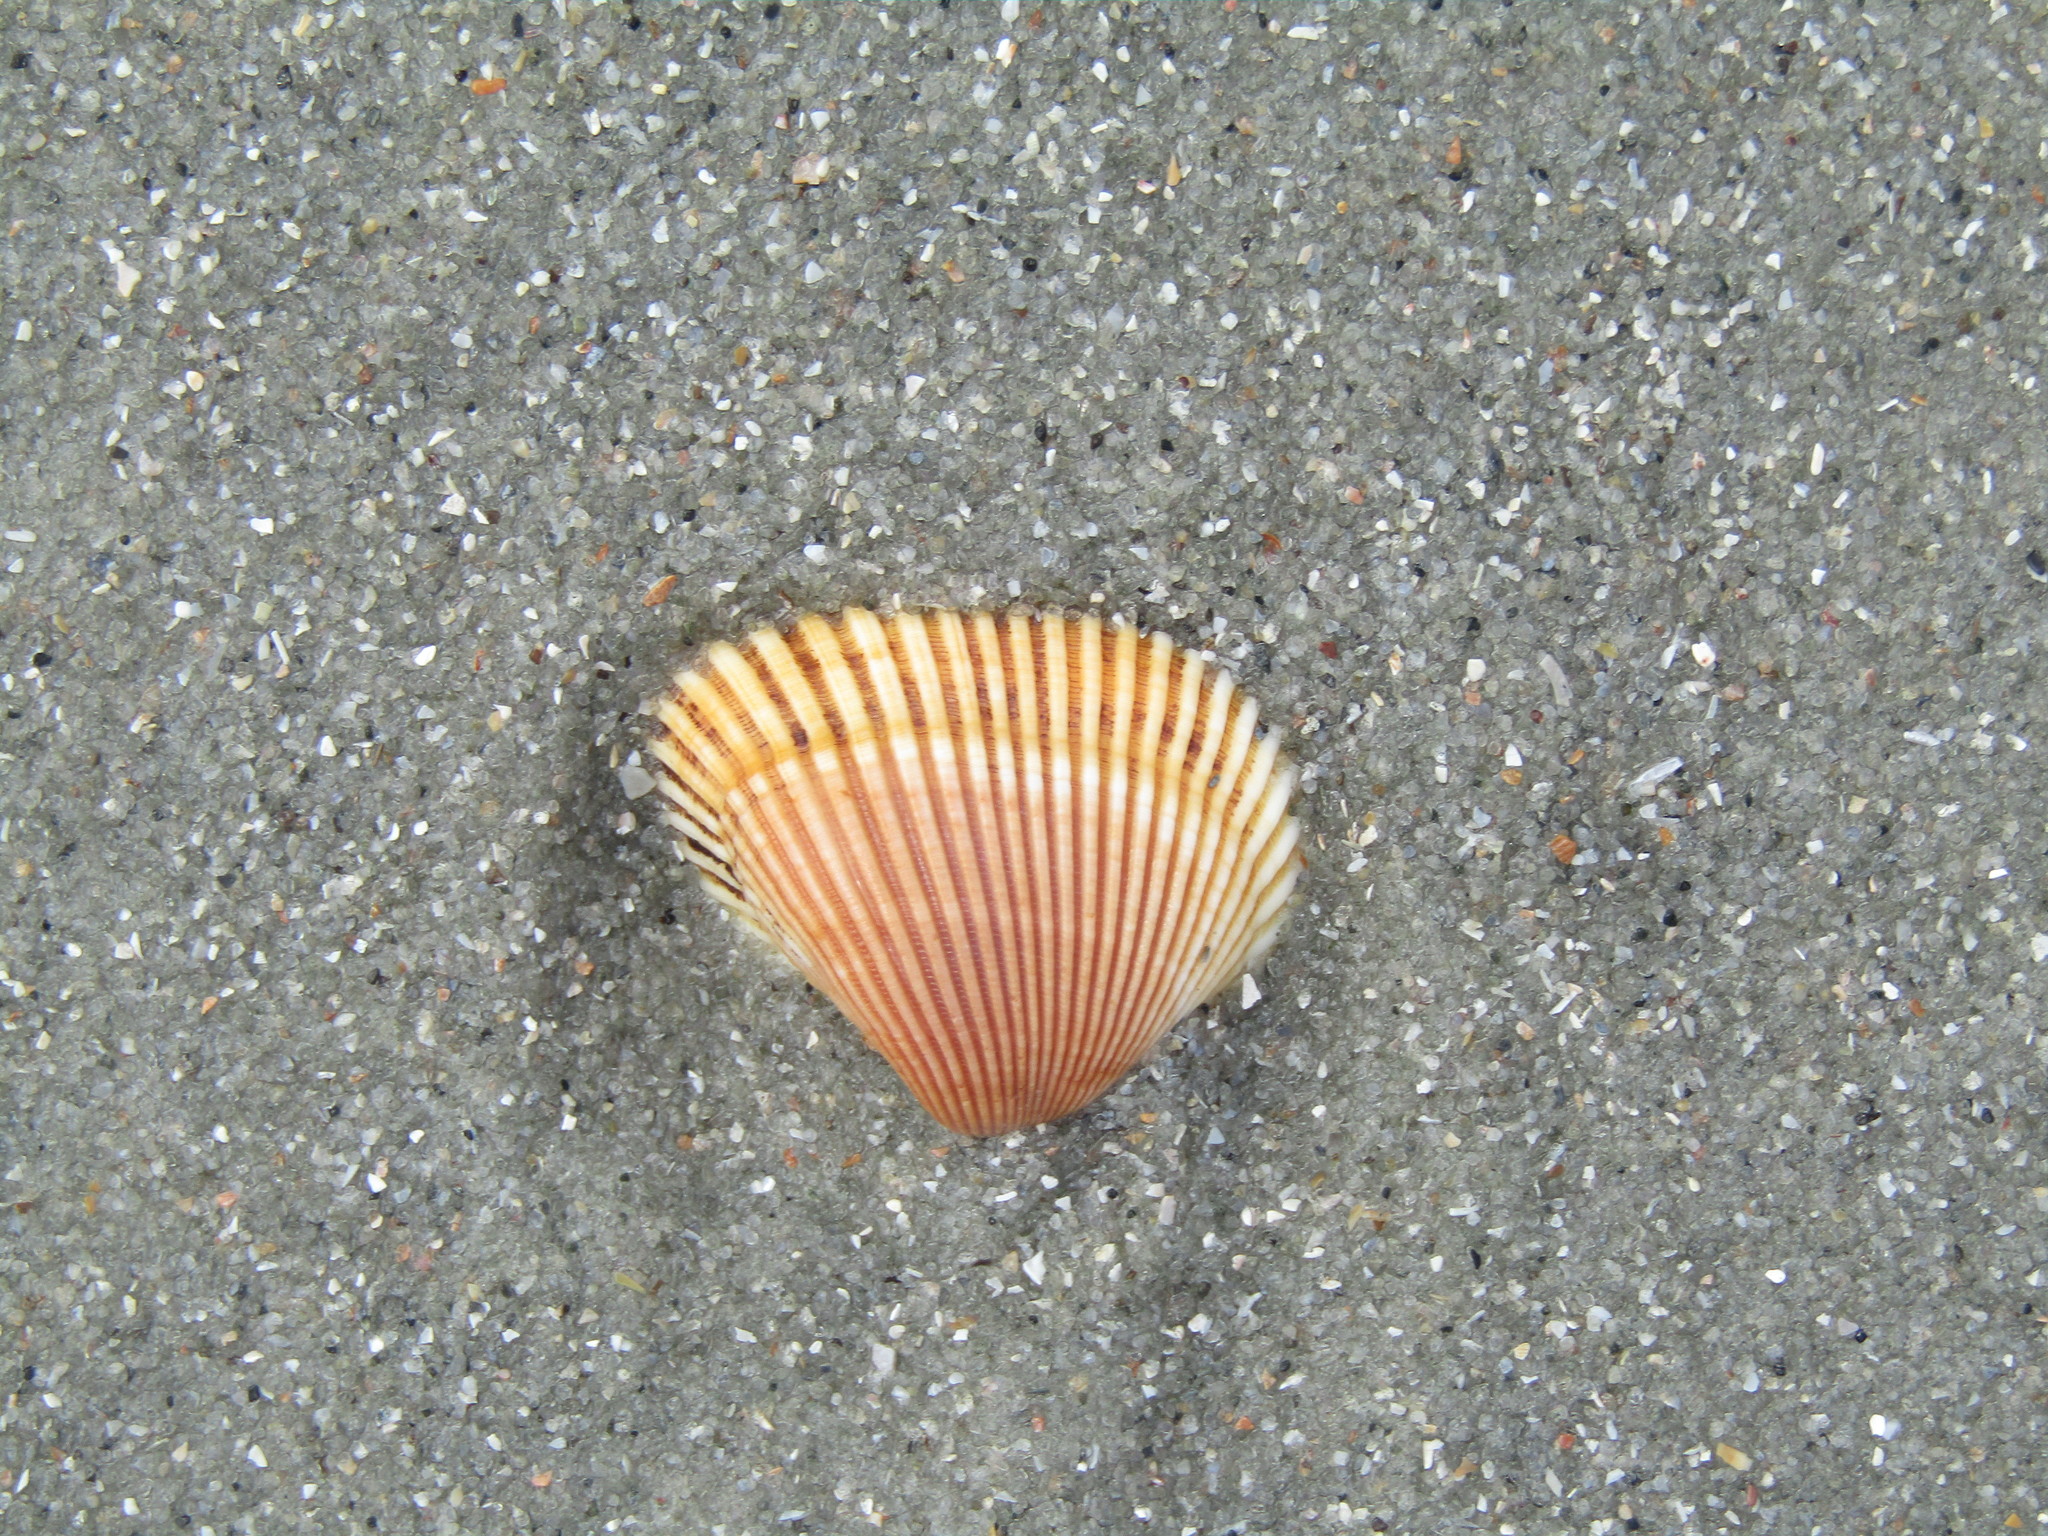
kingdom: Animalia
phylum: Mollusca
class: Bivalvia
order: Arcida
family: Noetiidae
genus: Noetia
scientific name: Noetia ponderosa
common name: Ponderous ark
